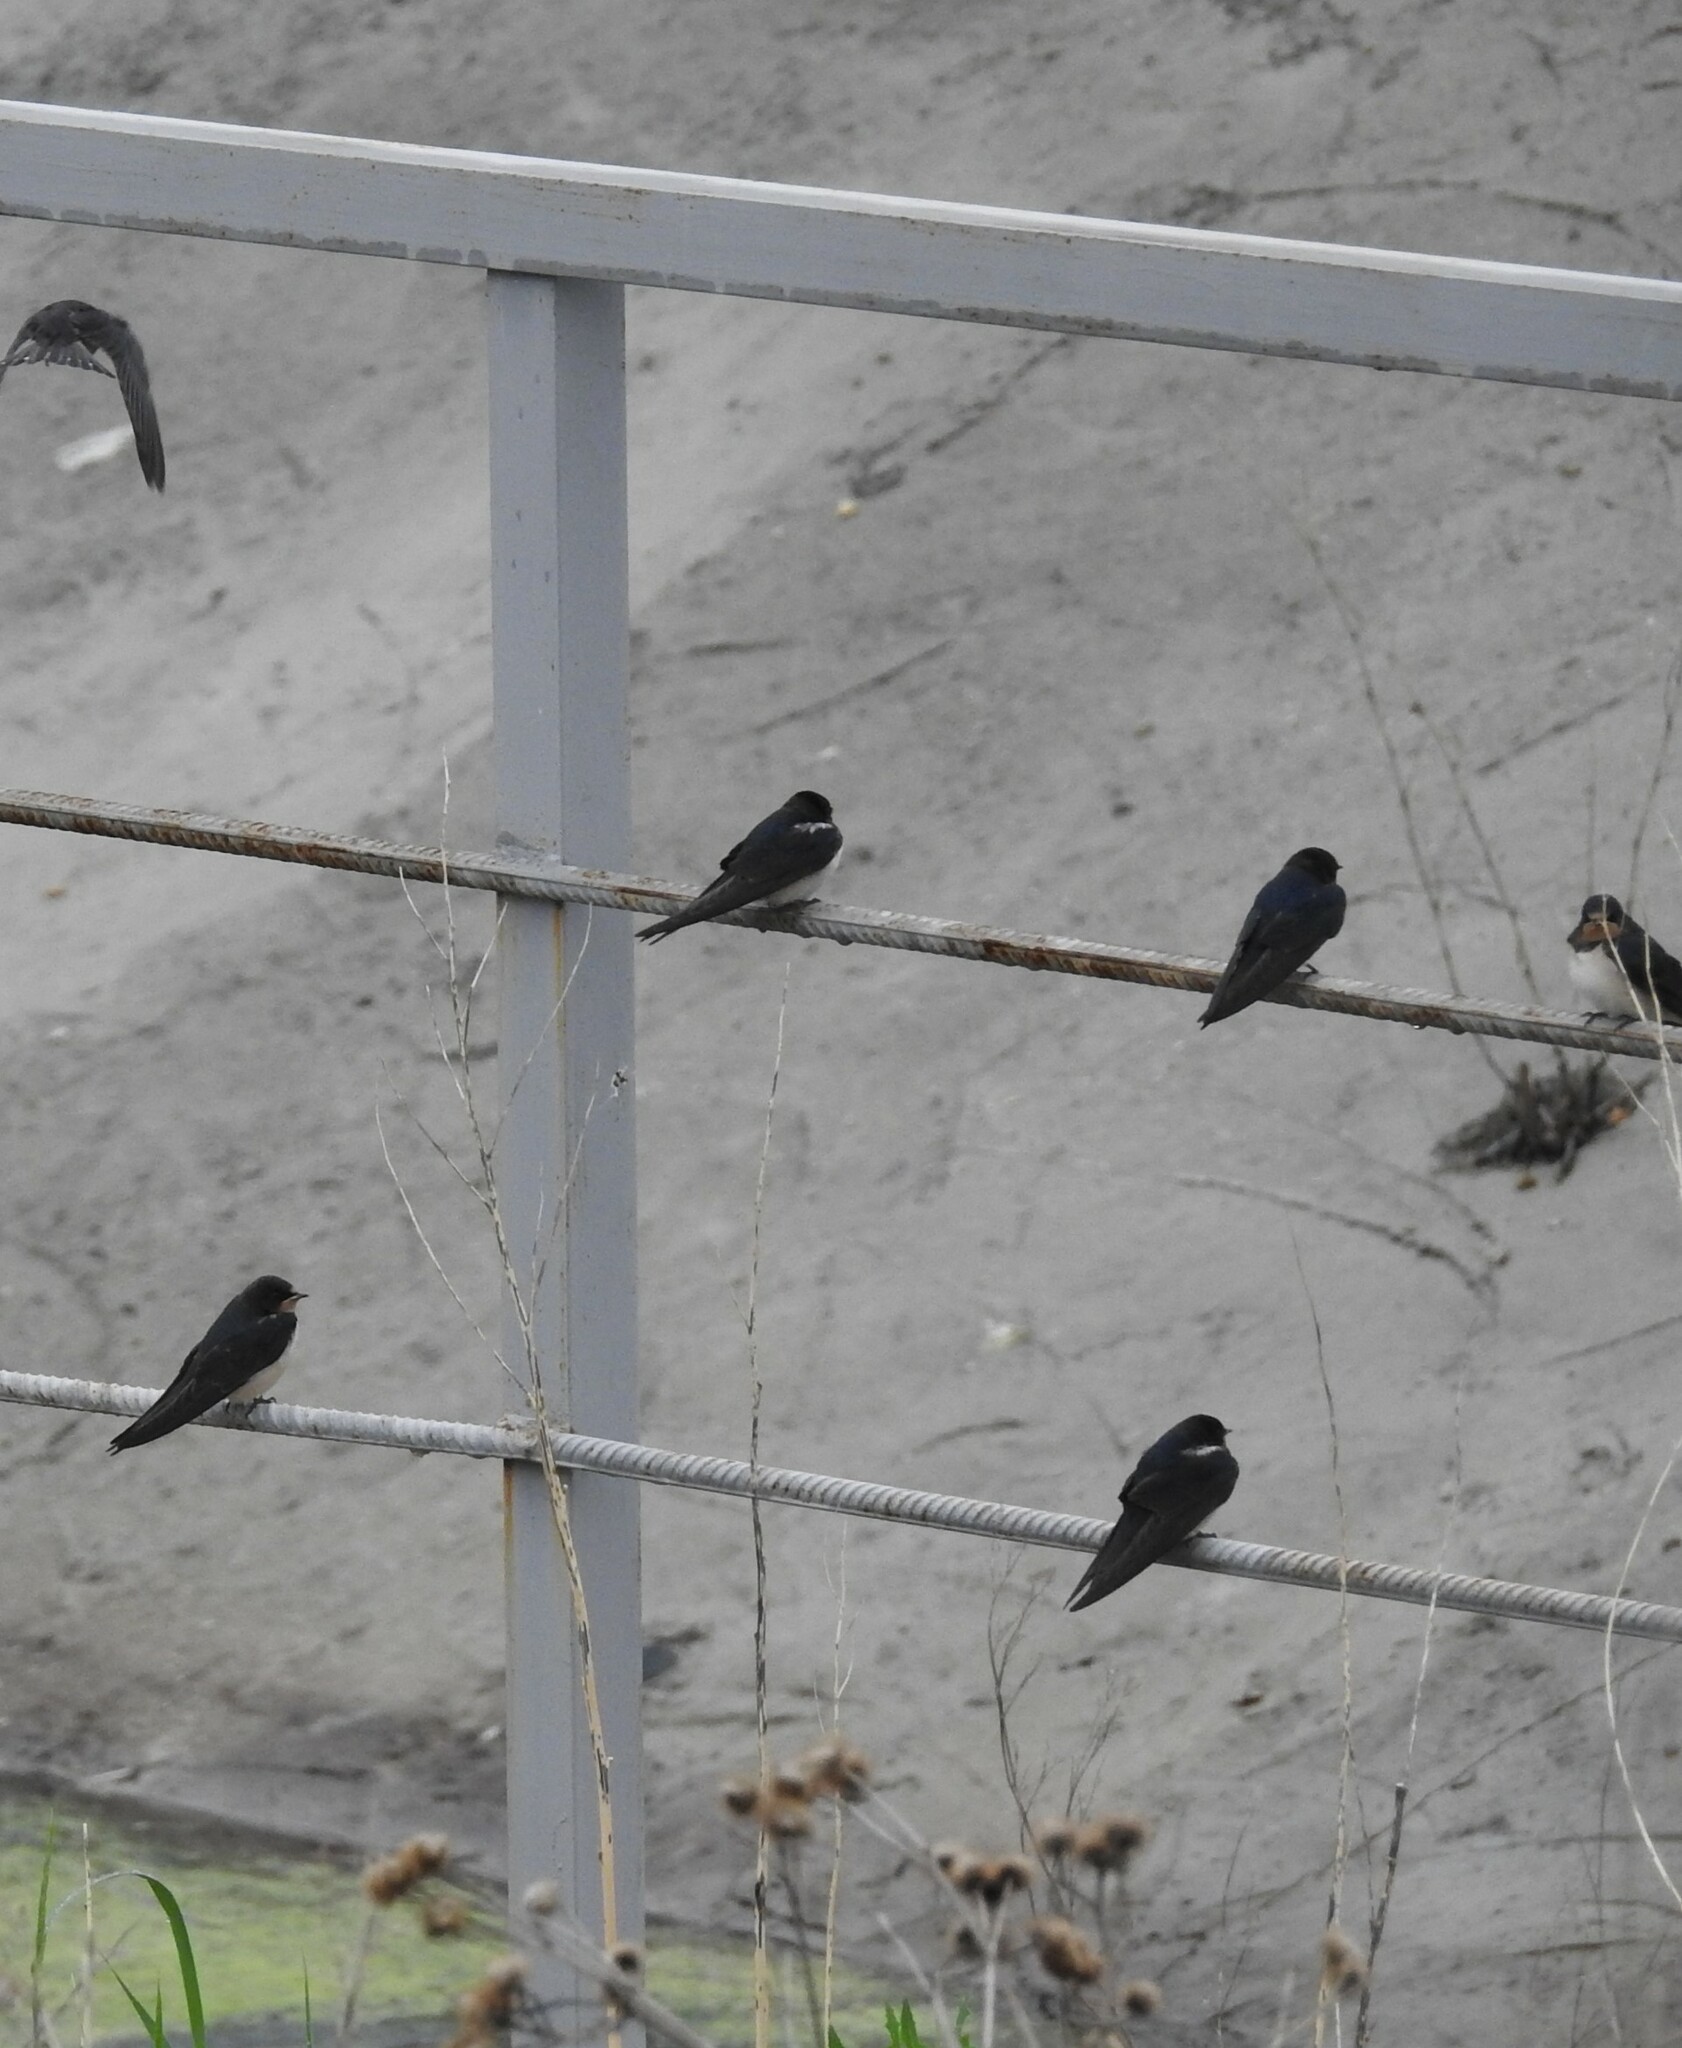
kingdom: Animalia
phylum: Chordata
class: Aves
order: Passeriformes
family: Hirundinidae
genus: Hirundo
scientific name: Hirundo rustica
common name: Barn swallow
